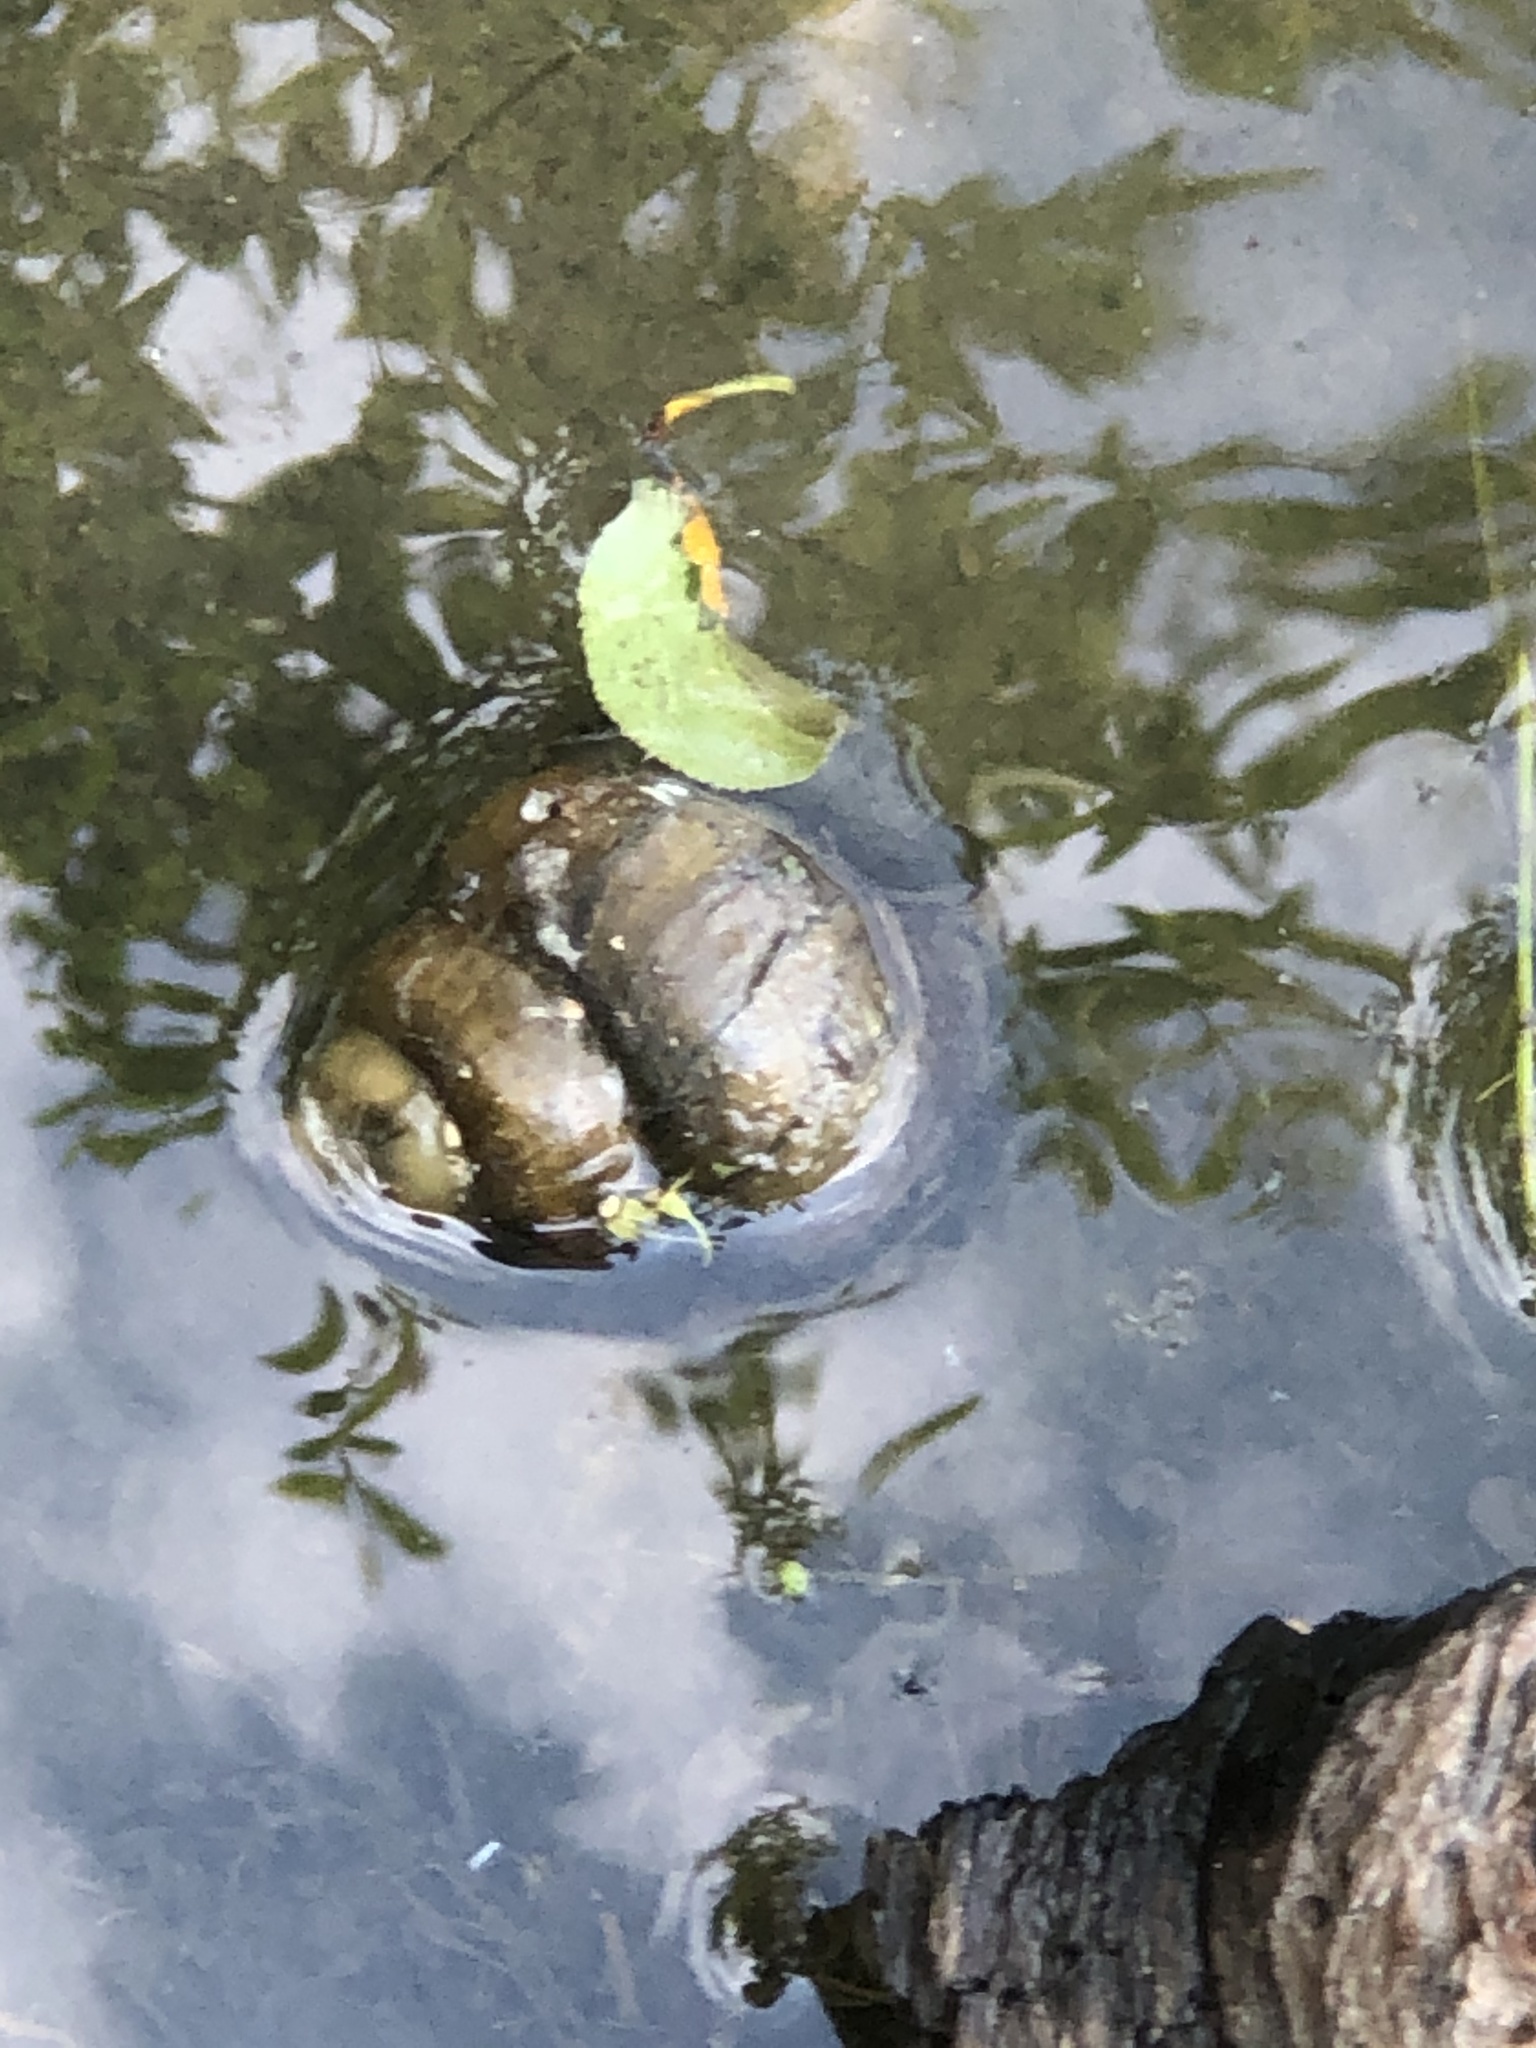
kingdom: Animalia
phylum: Mollusca
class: Gastropoda
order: Architaenioglossa
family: Viviparidae
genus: Cipangopaludina
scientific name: Cipangopaludina chinensis
